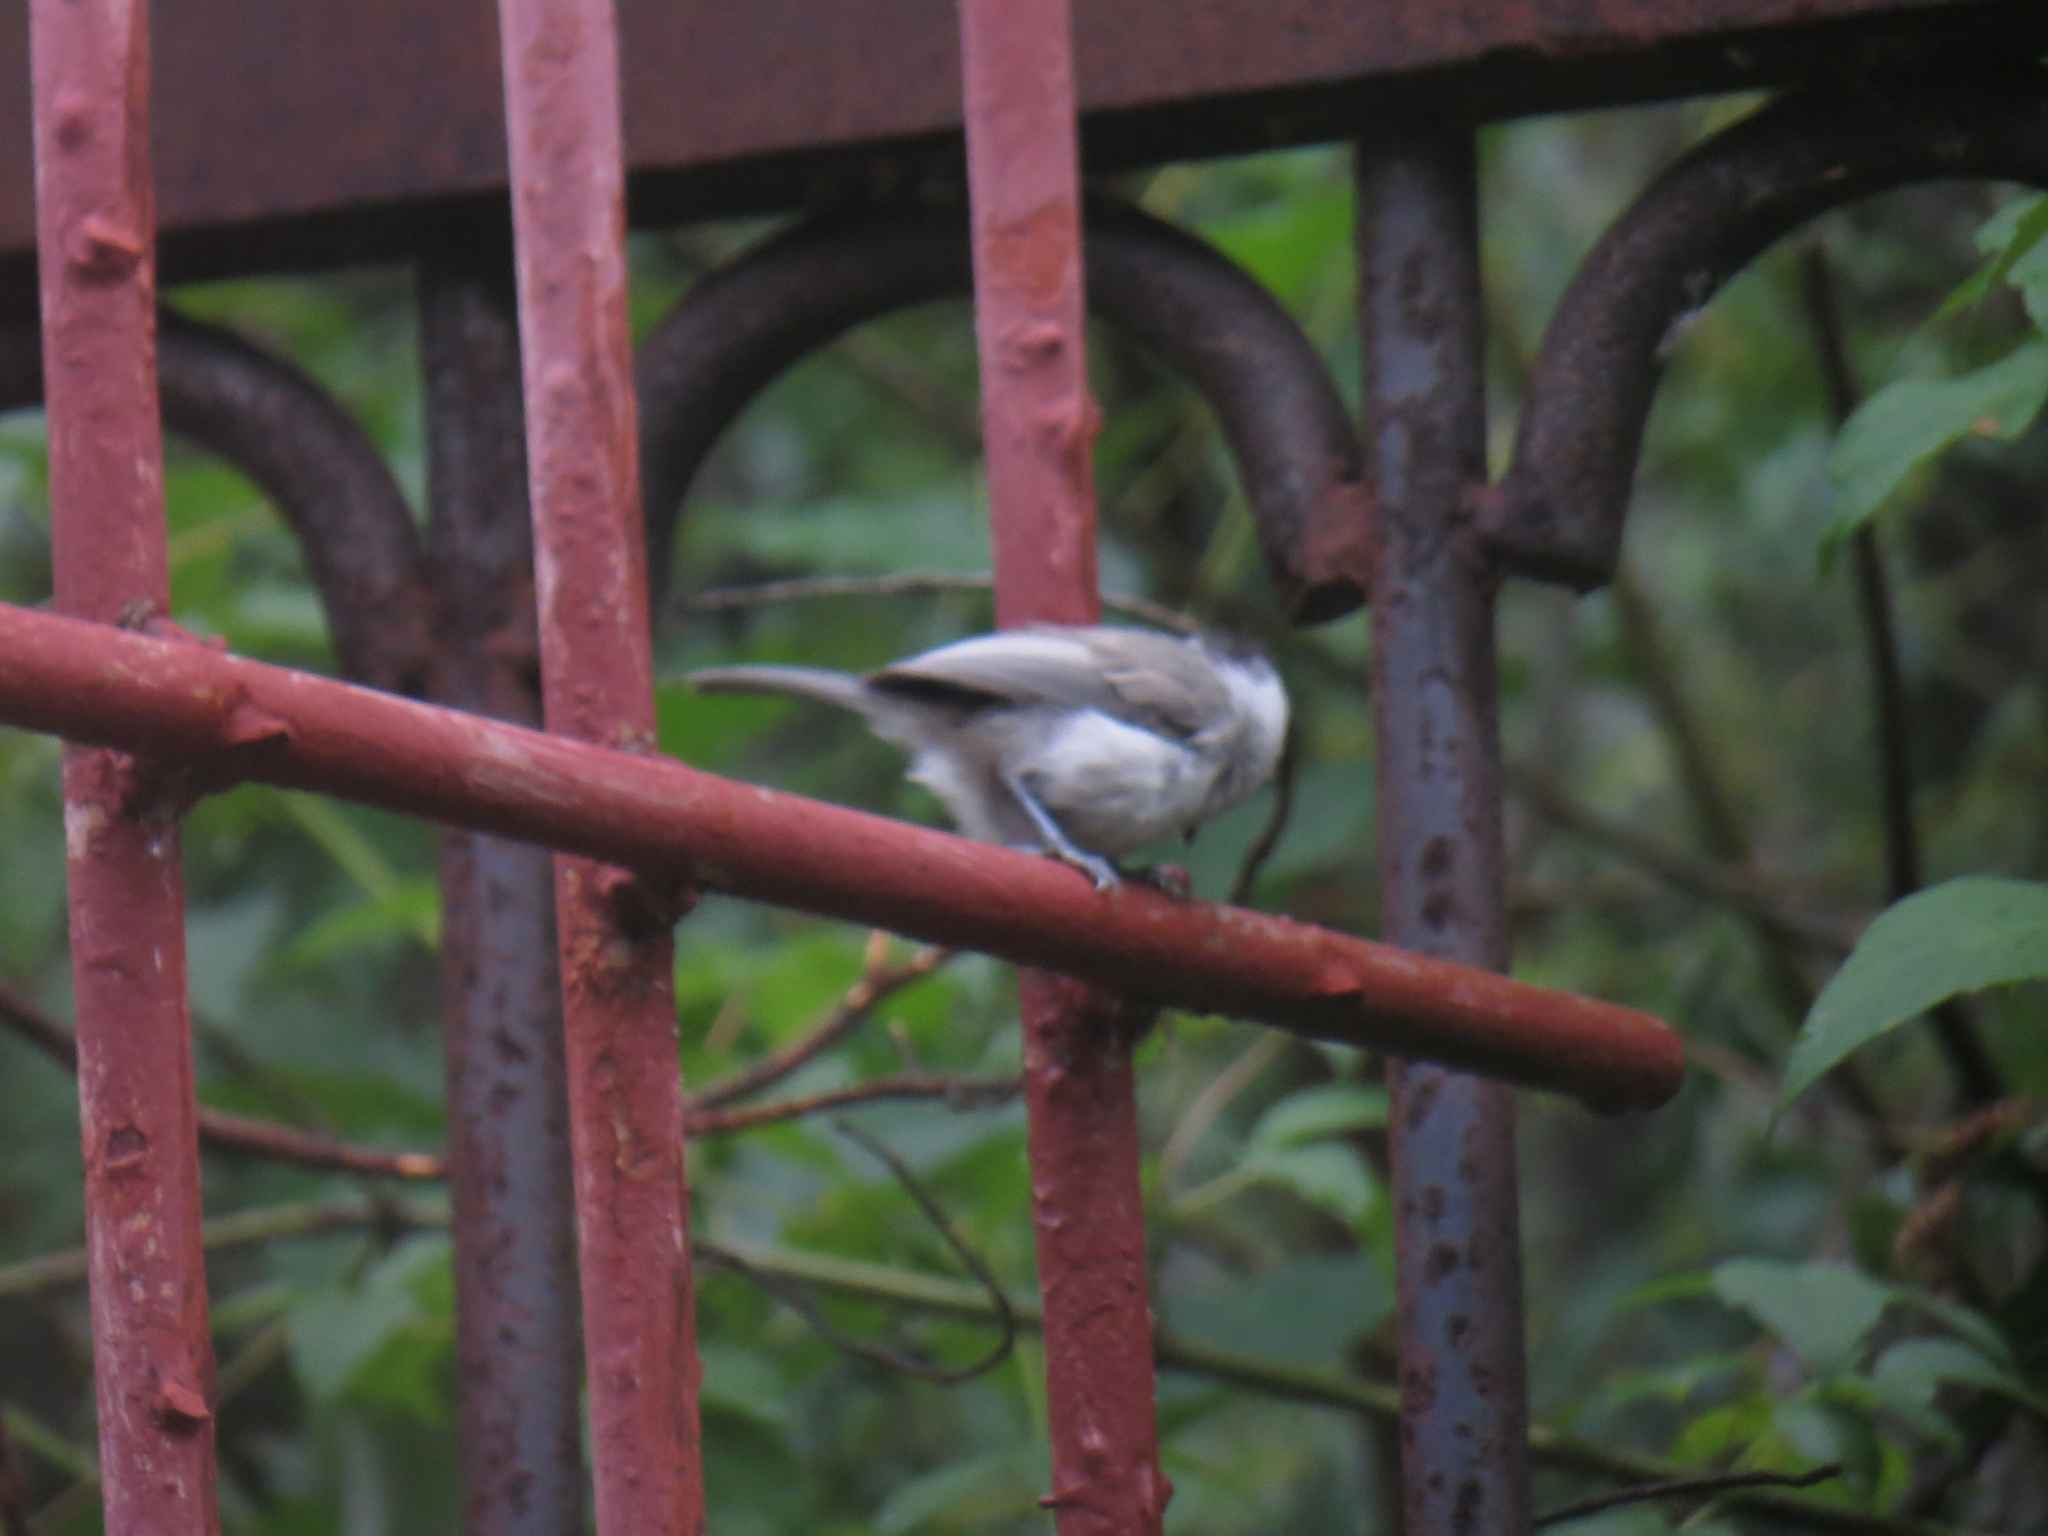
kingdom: Animalia
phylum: Chordata
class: Aves
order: Passeriformes
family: Paridae
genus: Poecile
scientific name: Poecile montanus
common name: Willow tit
